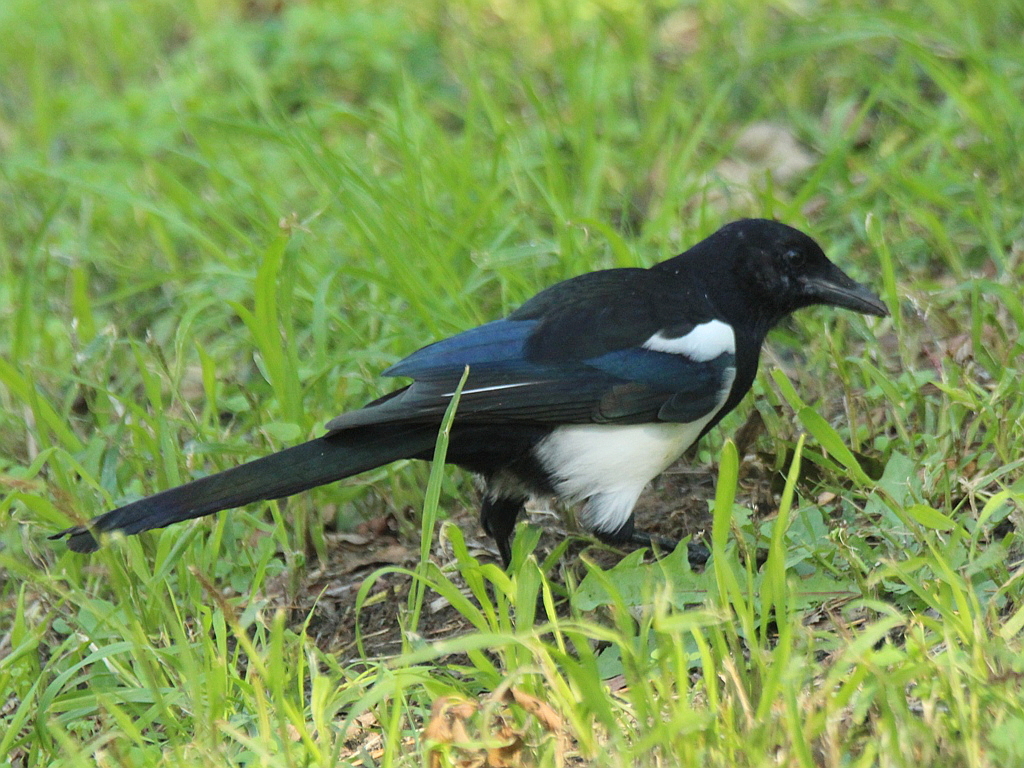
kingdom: Animalia
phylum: Chordata
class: Aves
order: Passeriformes
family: Corvidae
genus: Pica
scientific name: Pica serica
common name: Oriental magpie
